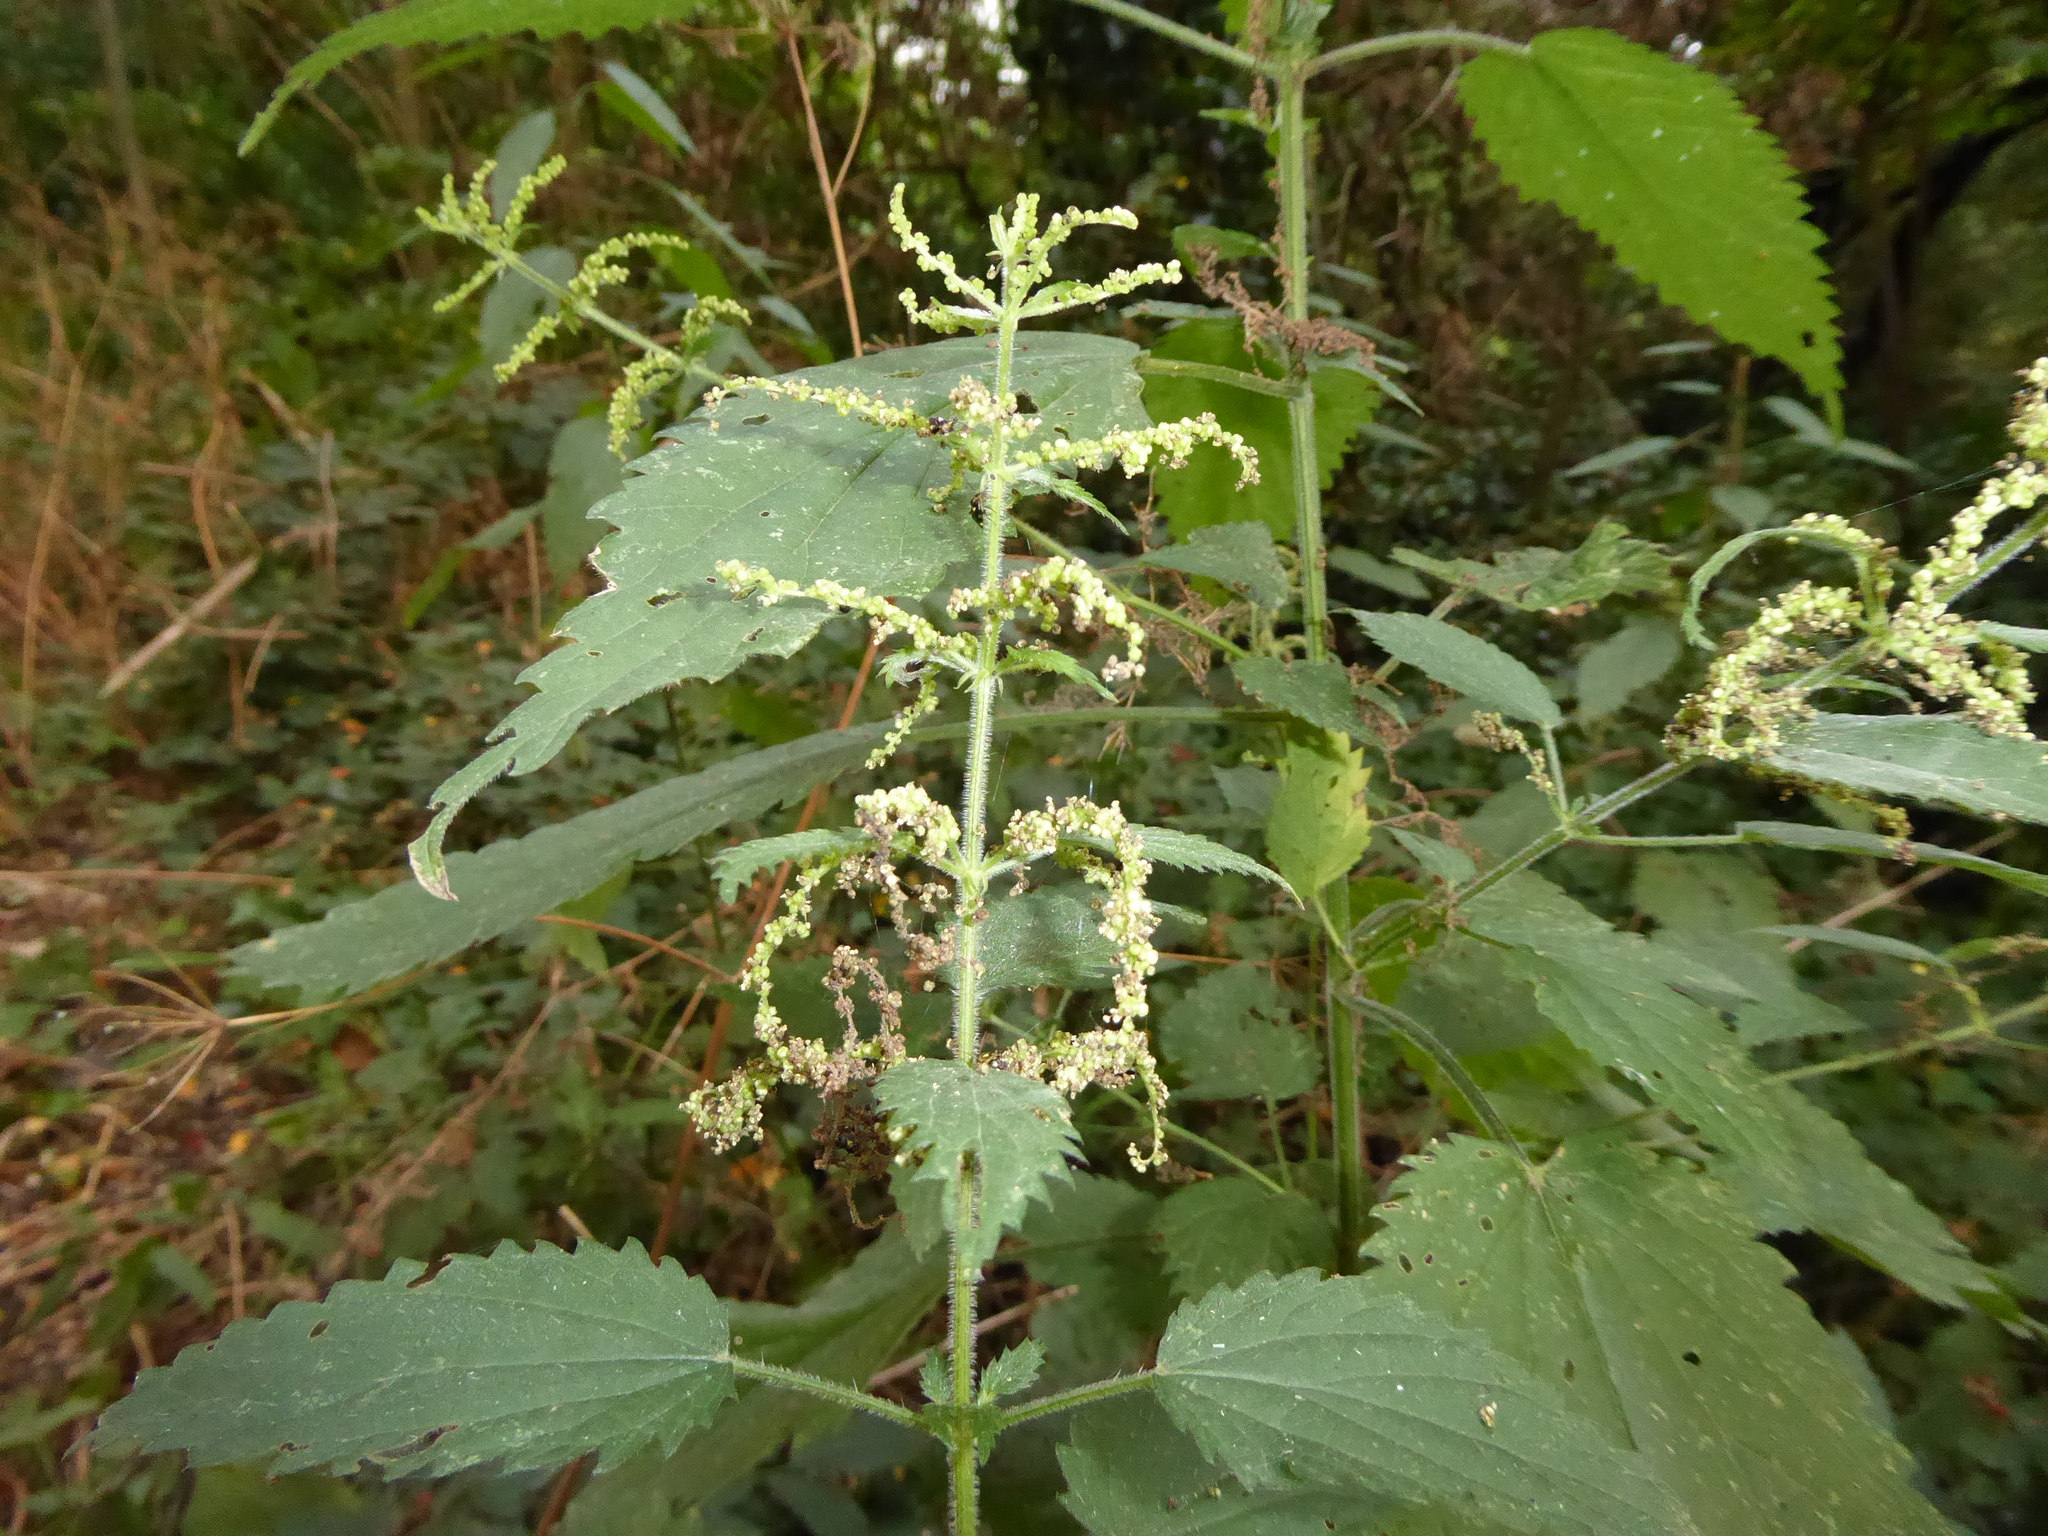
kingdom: Plantae
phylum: Tracheophyta
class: Magnoliopsida
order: Rosales
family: Urticaceae
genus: Urtica
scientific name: Urtica dioica
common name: Common nettle
